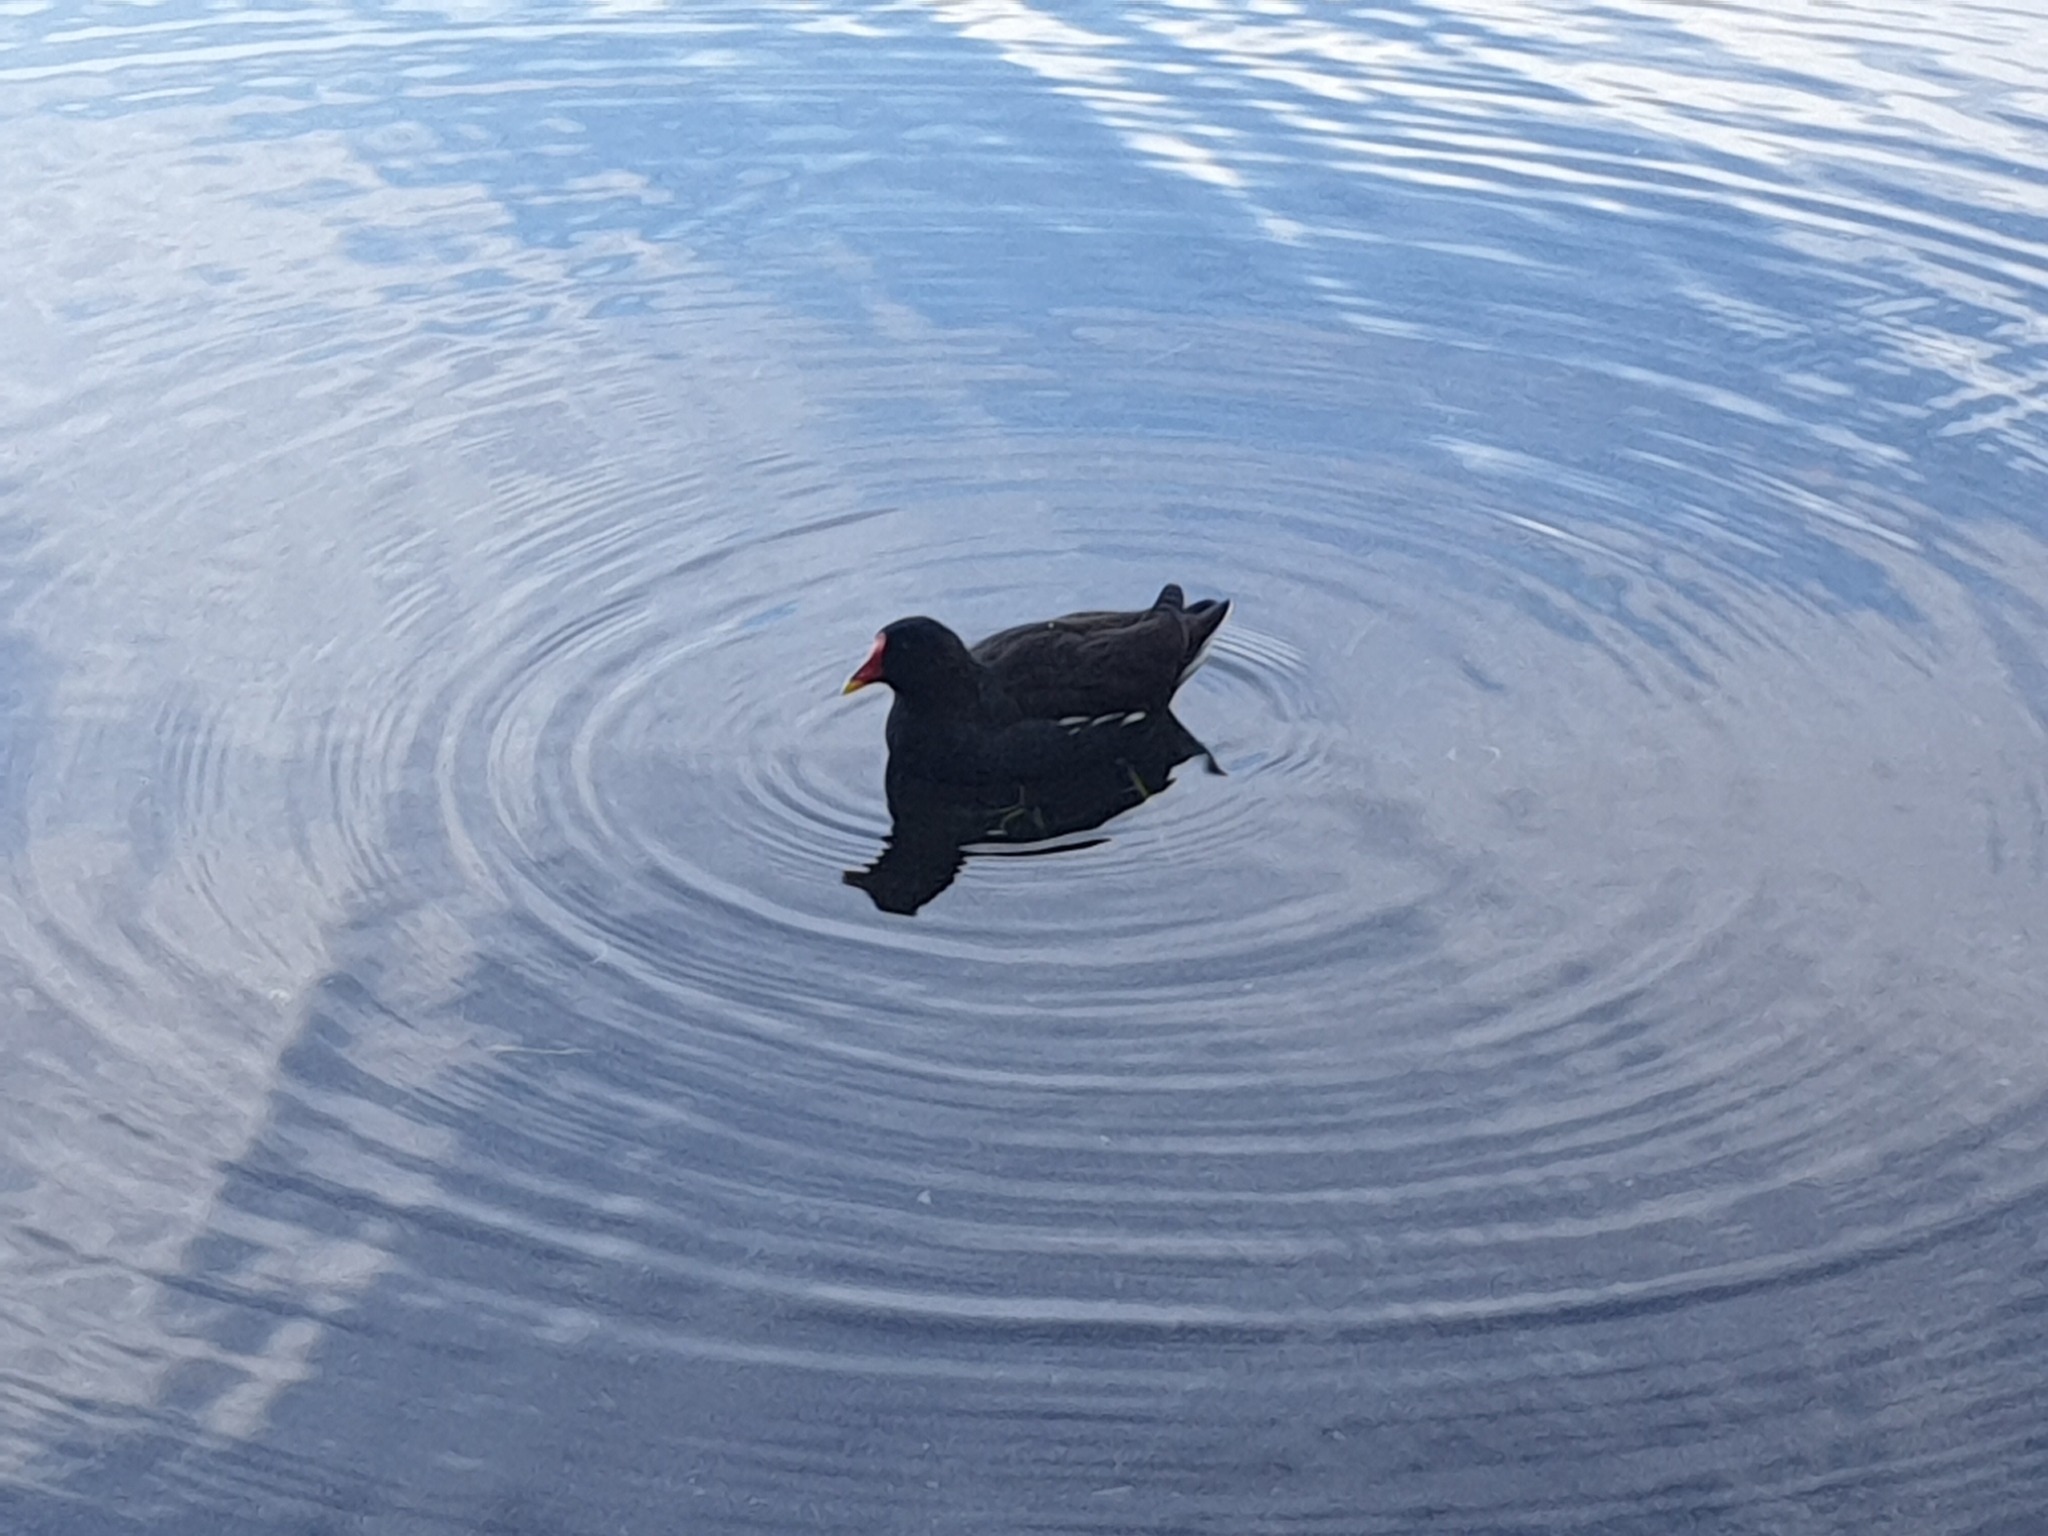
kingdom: Animalia
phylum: Chordata
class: Aves
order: Gruiformes
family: Rallidae
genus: Gallinula
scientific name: Gallinula chloropus
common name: Common moorhen
